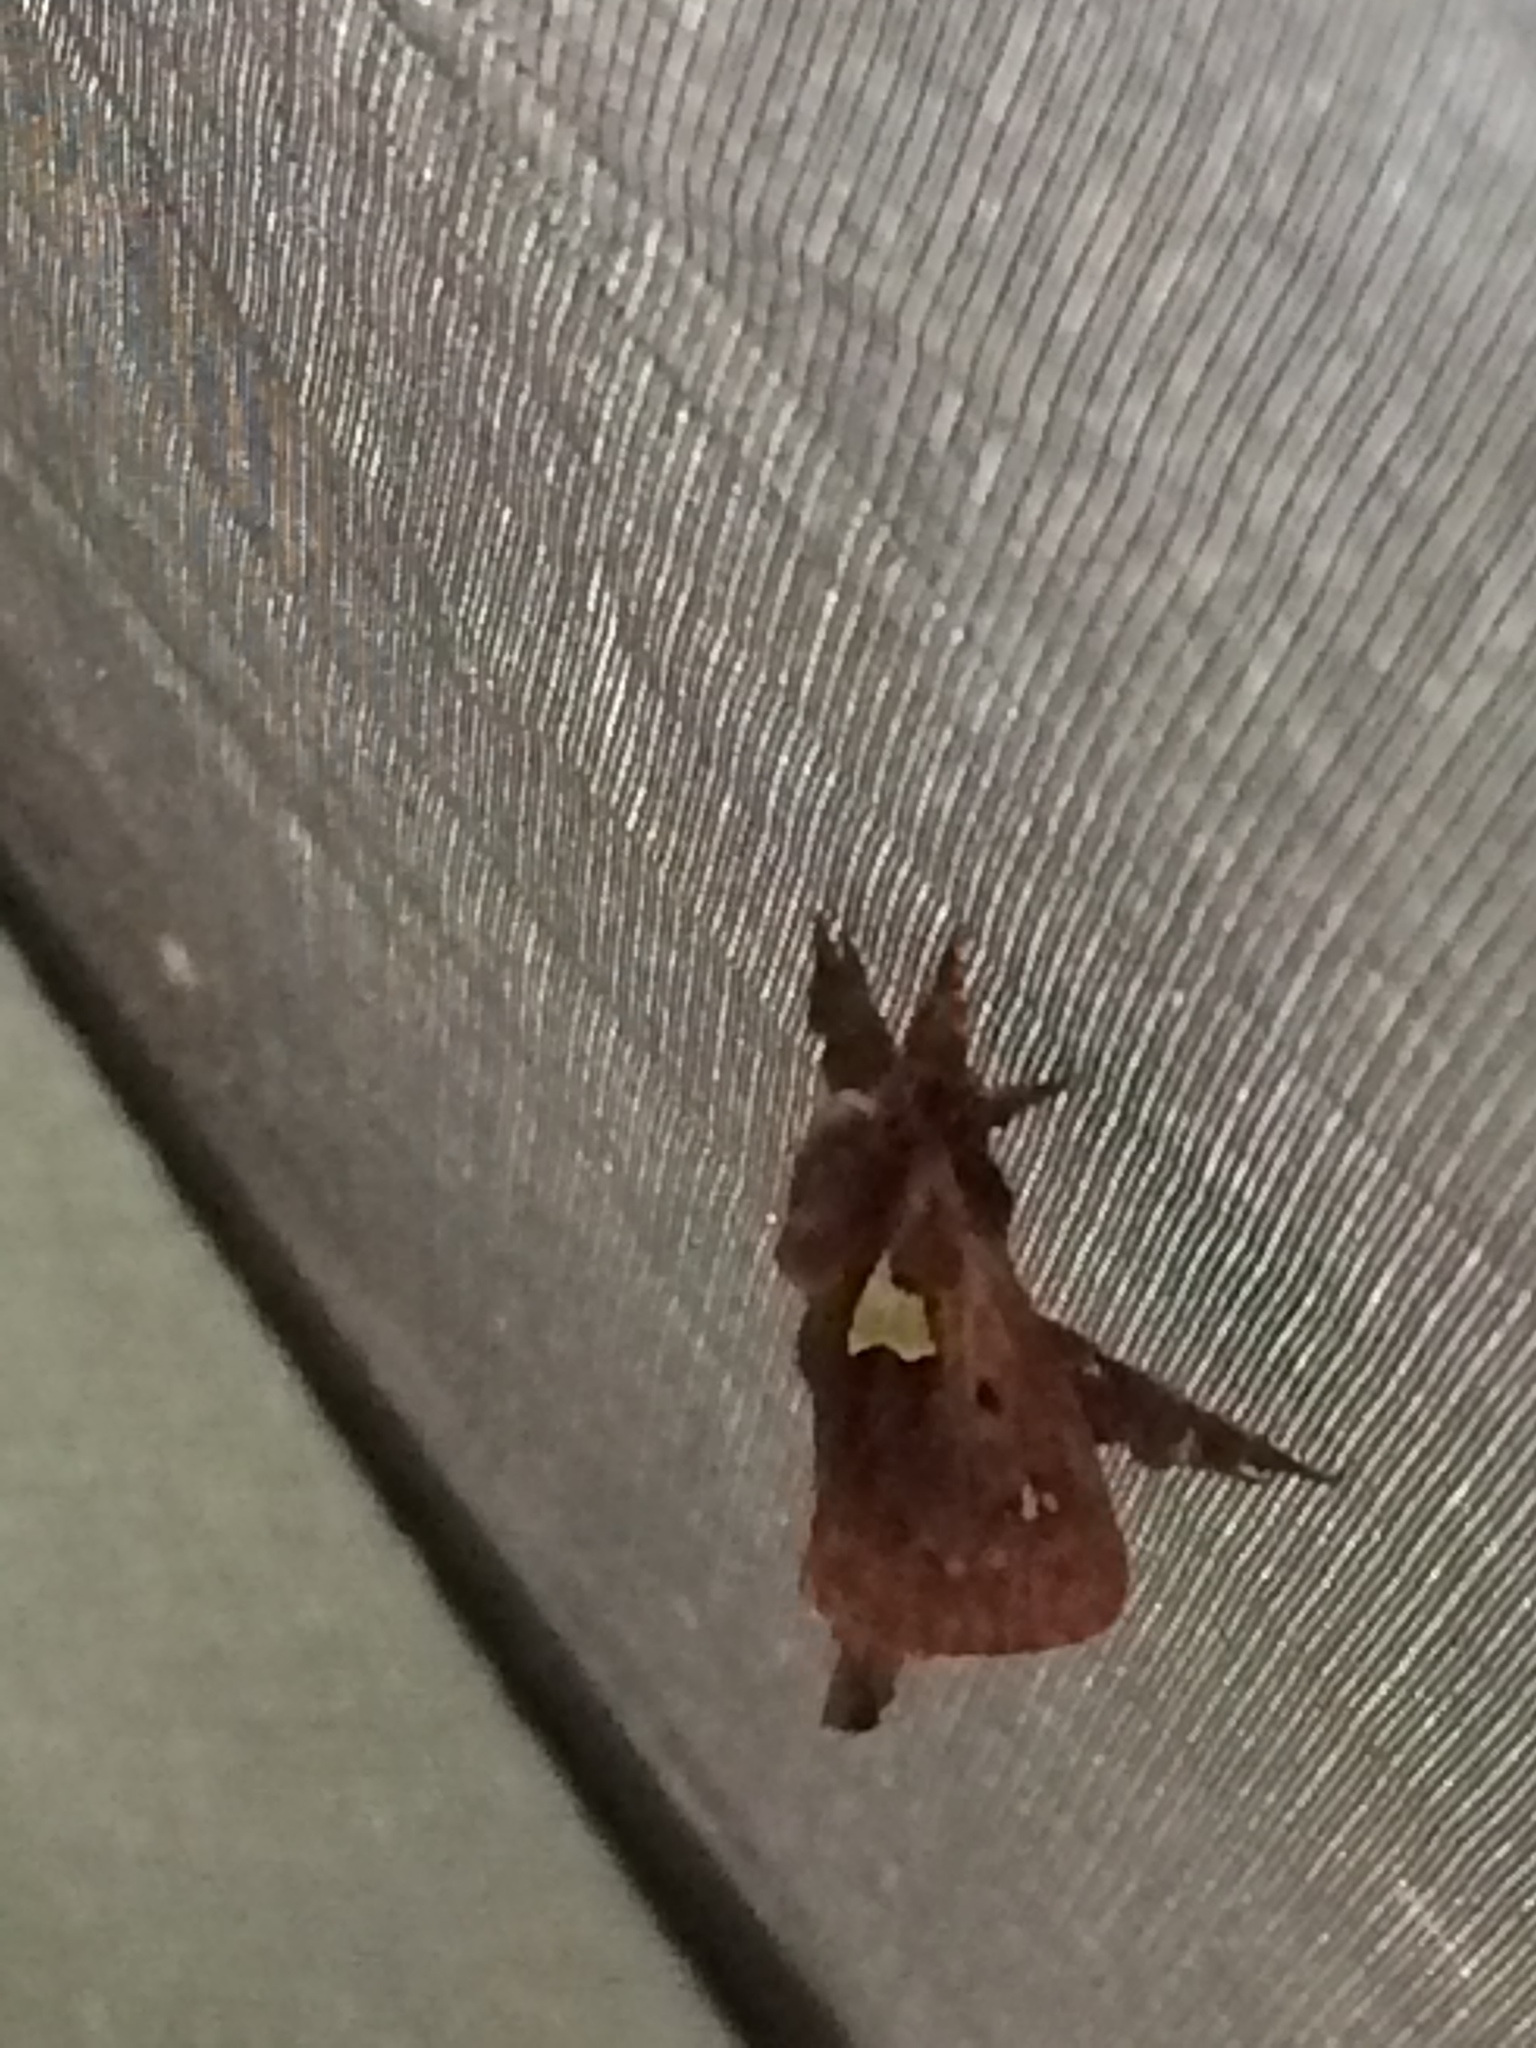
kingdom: Animalia
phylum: Arthropoda
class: Insecta
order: Lepidoptera
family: Limacodidae
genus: Euclea
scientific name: Euclea delphinii
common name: Spiny oak-slug moth
